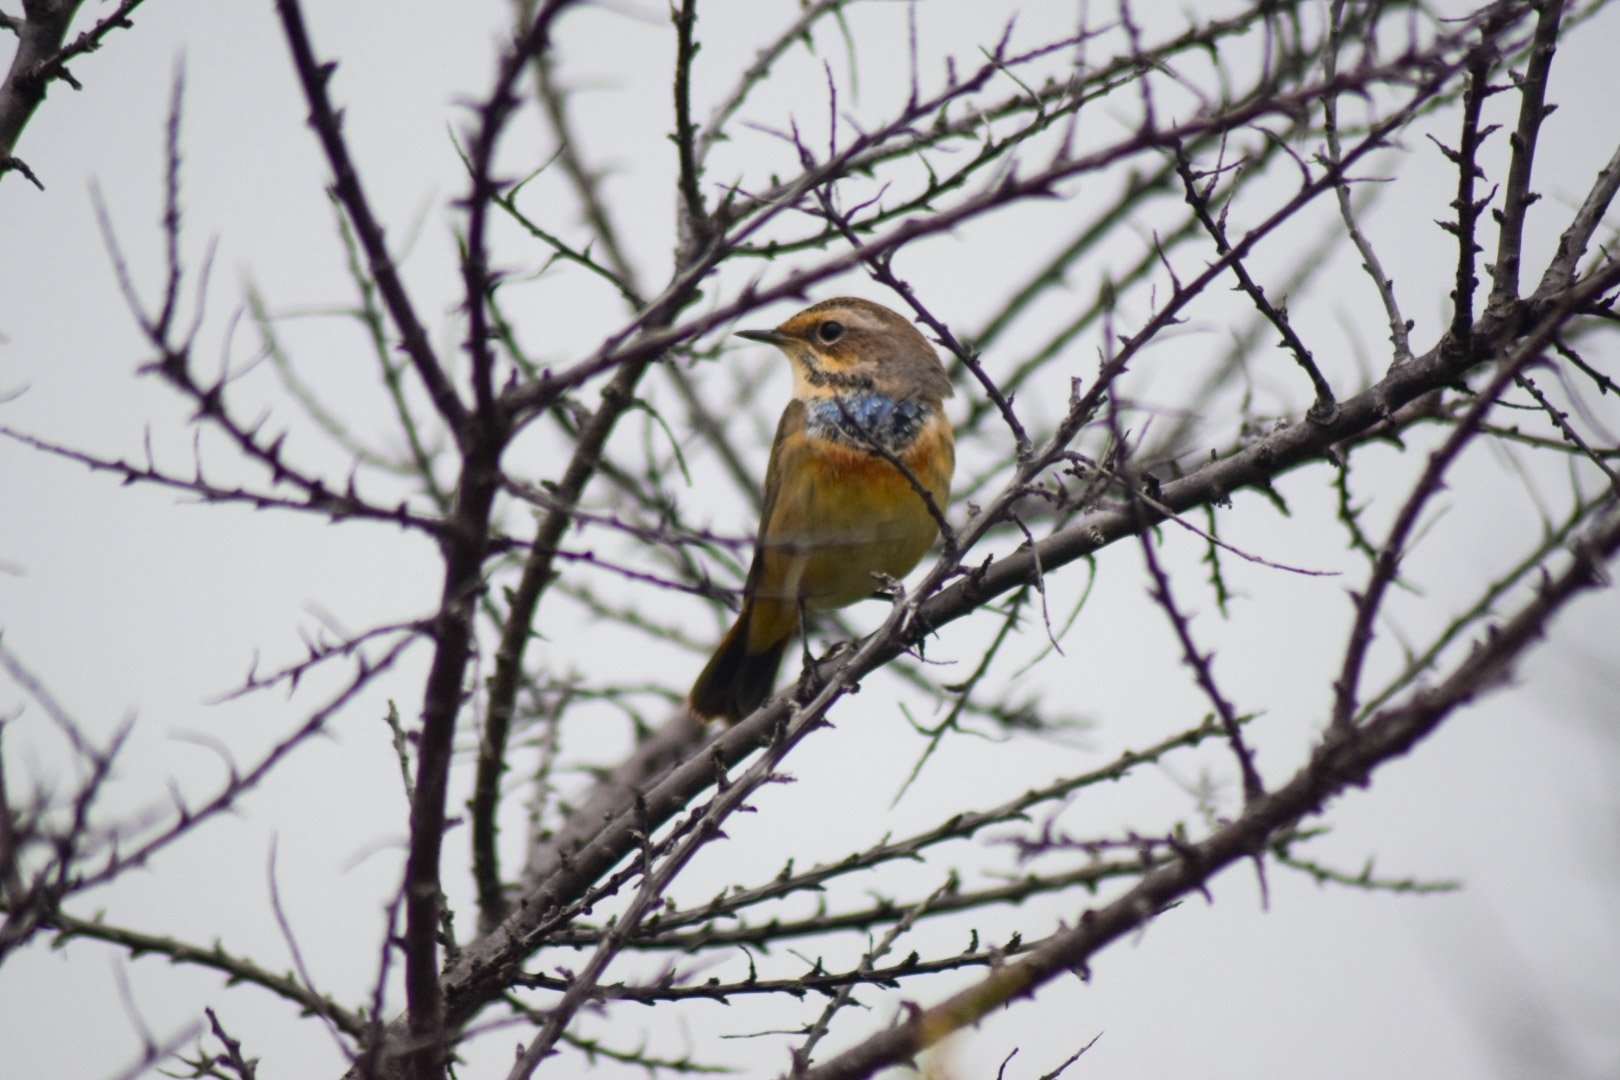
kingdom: Animalia
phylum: Chordata
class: Aves
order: Passeriformes
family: Muscicapidae
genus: Luscinia
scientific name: Luscinia svecica
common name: Bluethroat
